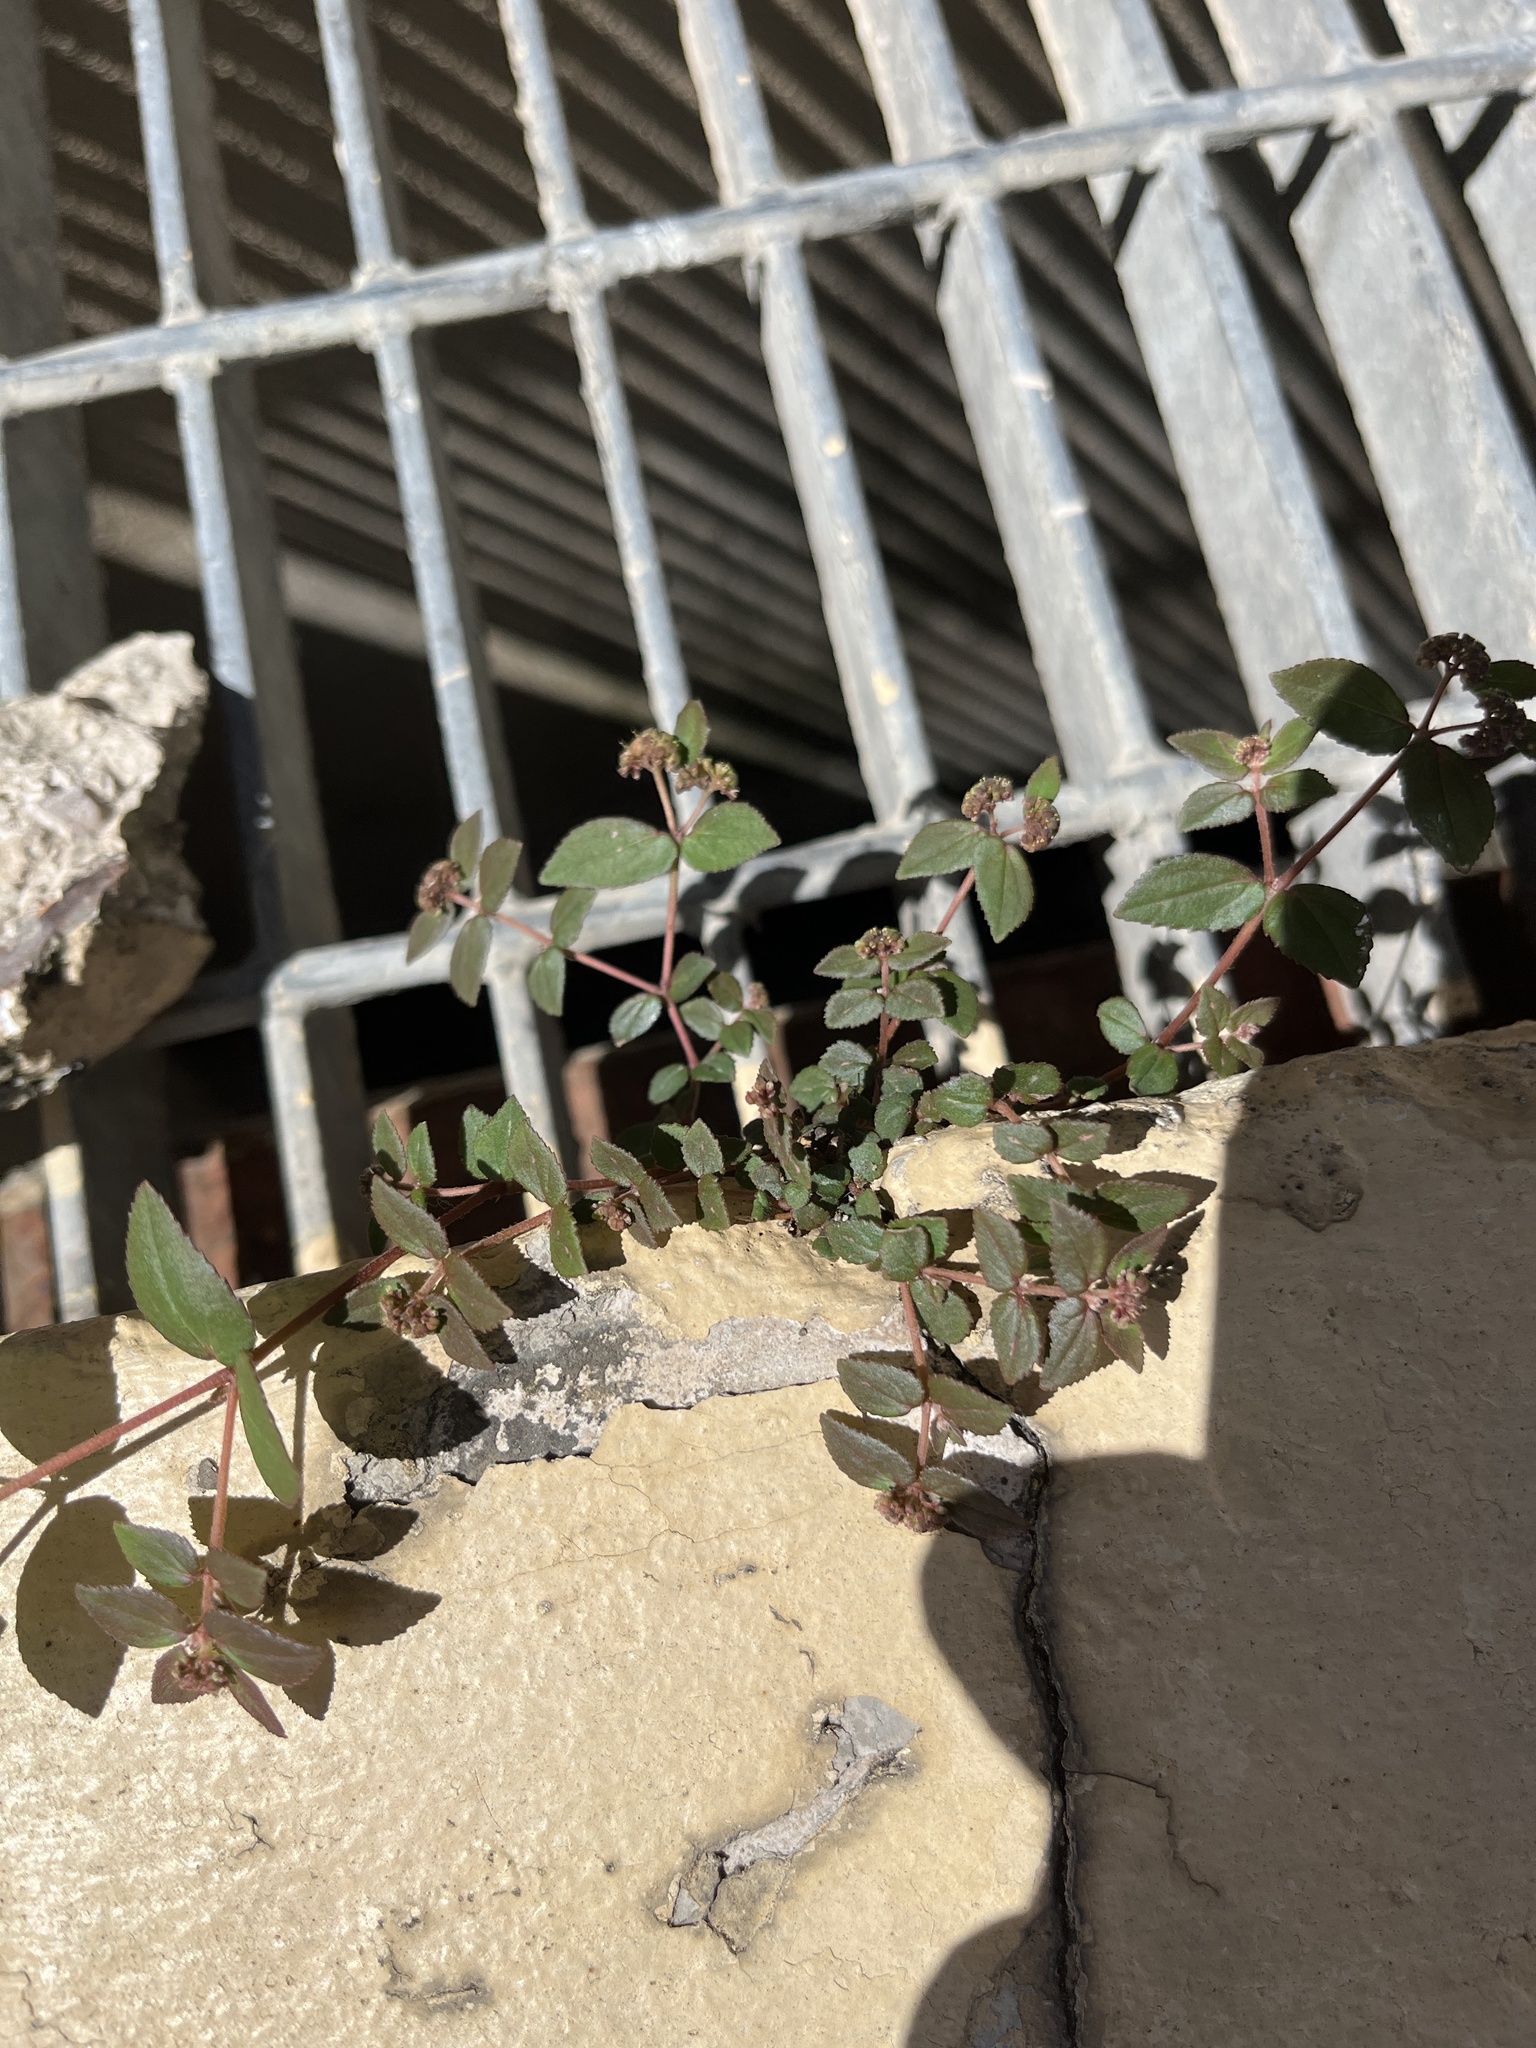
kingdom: Plantae
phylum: Tracheophyta
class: Magnoliopsida
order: Malpighiales
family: Euphorbiaceae
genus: Euphorbia
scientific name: Euphorbia ophthalmica
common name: Florida hammock sandmat
